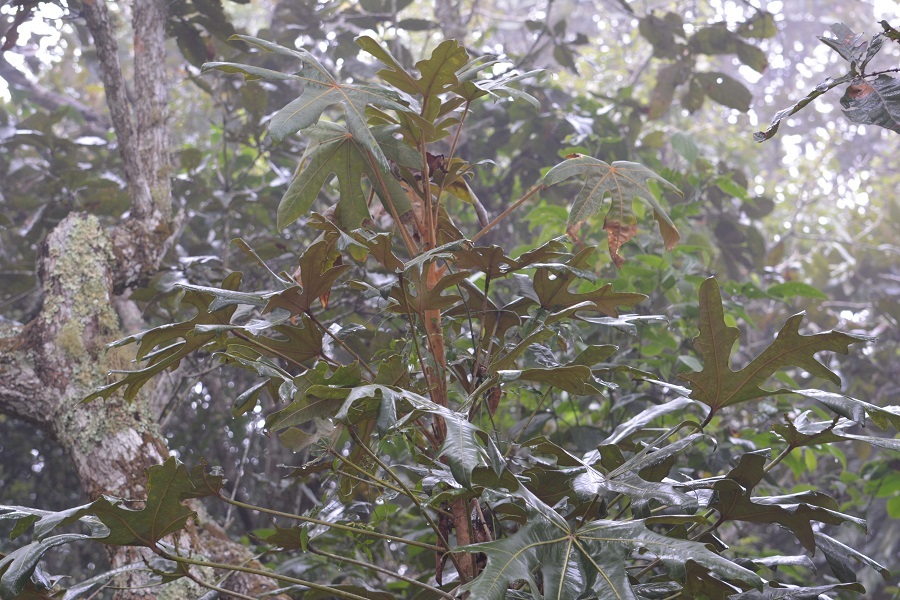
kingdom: Plantae
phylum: Tracheophyta
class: Magnoliopsida
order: Apiales
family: Araliaceae
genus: Oreopanax
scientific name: Oreopanax geminatus
